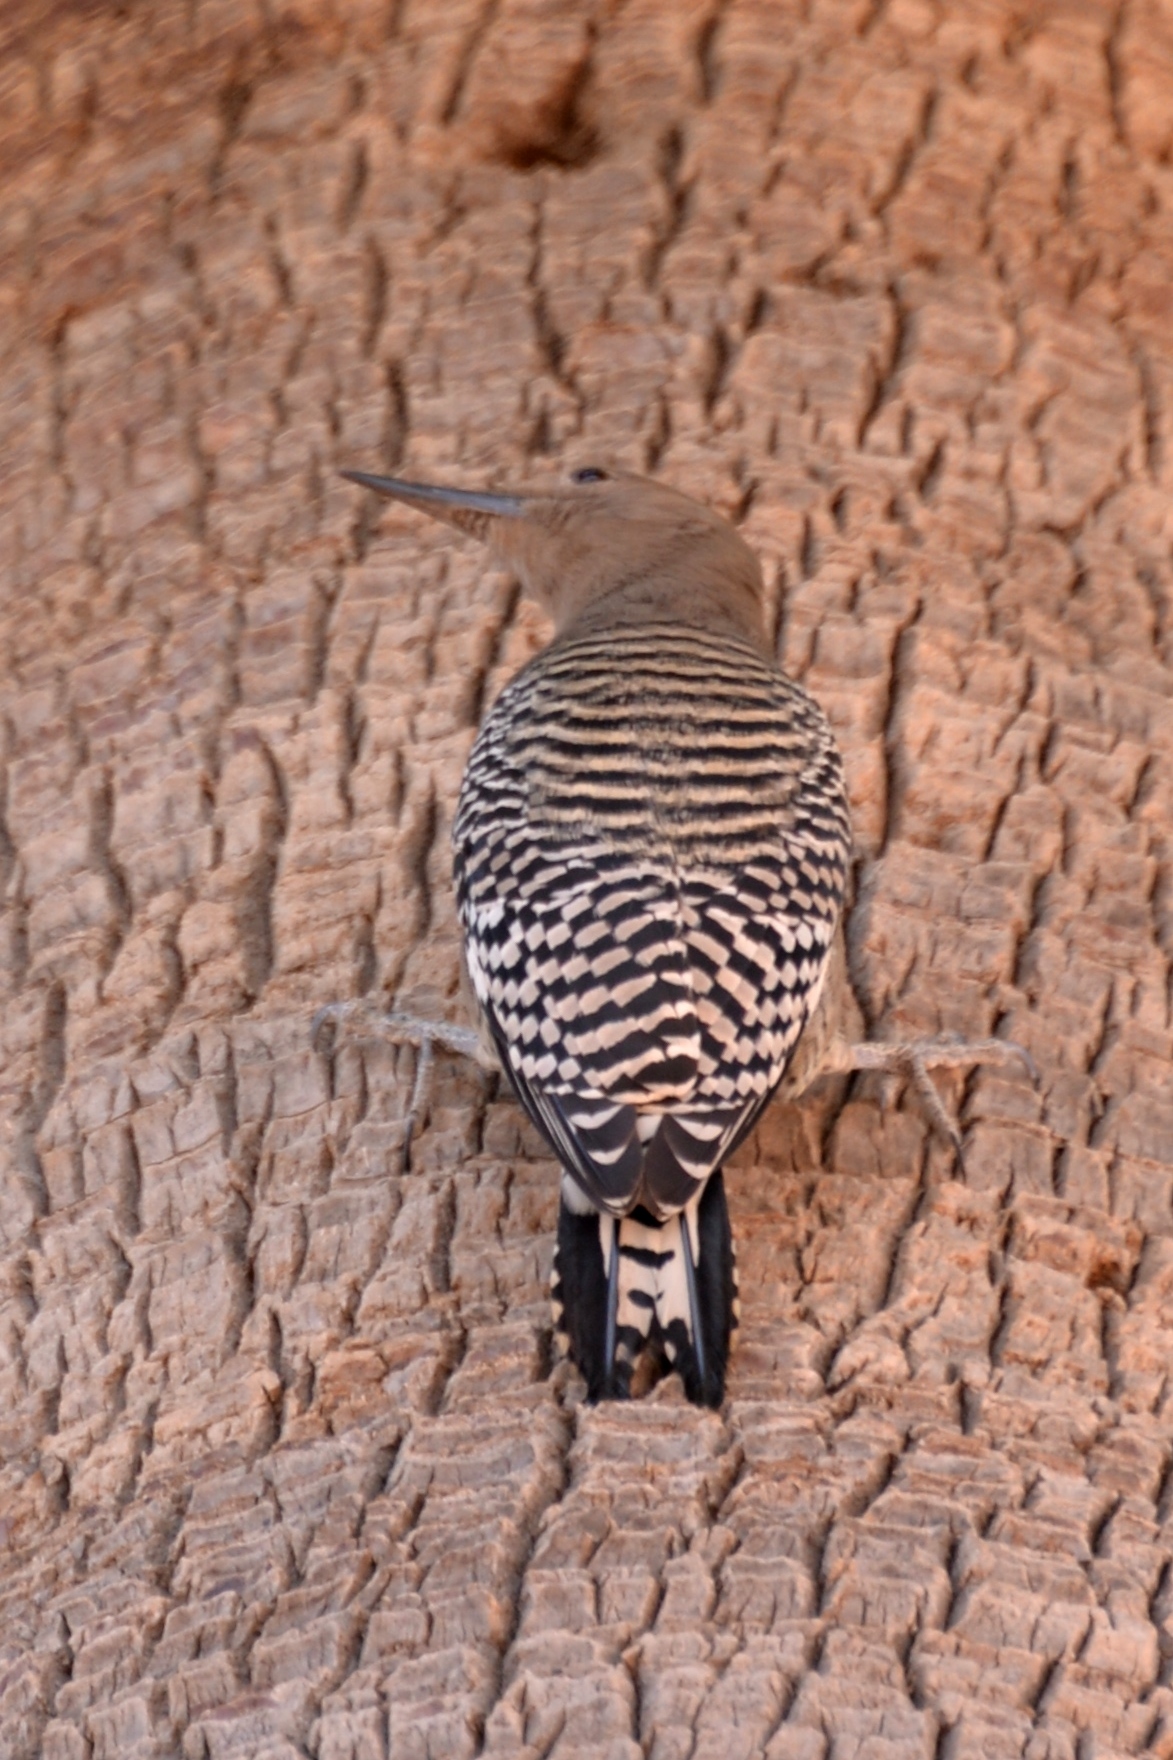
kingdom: Animalia
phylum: Chordata
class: Aves
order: Piciformes
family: Picidae
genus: Melanerpes
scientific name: Melanerpes uropygialis
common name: Gila woodpecker
